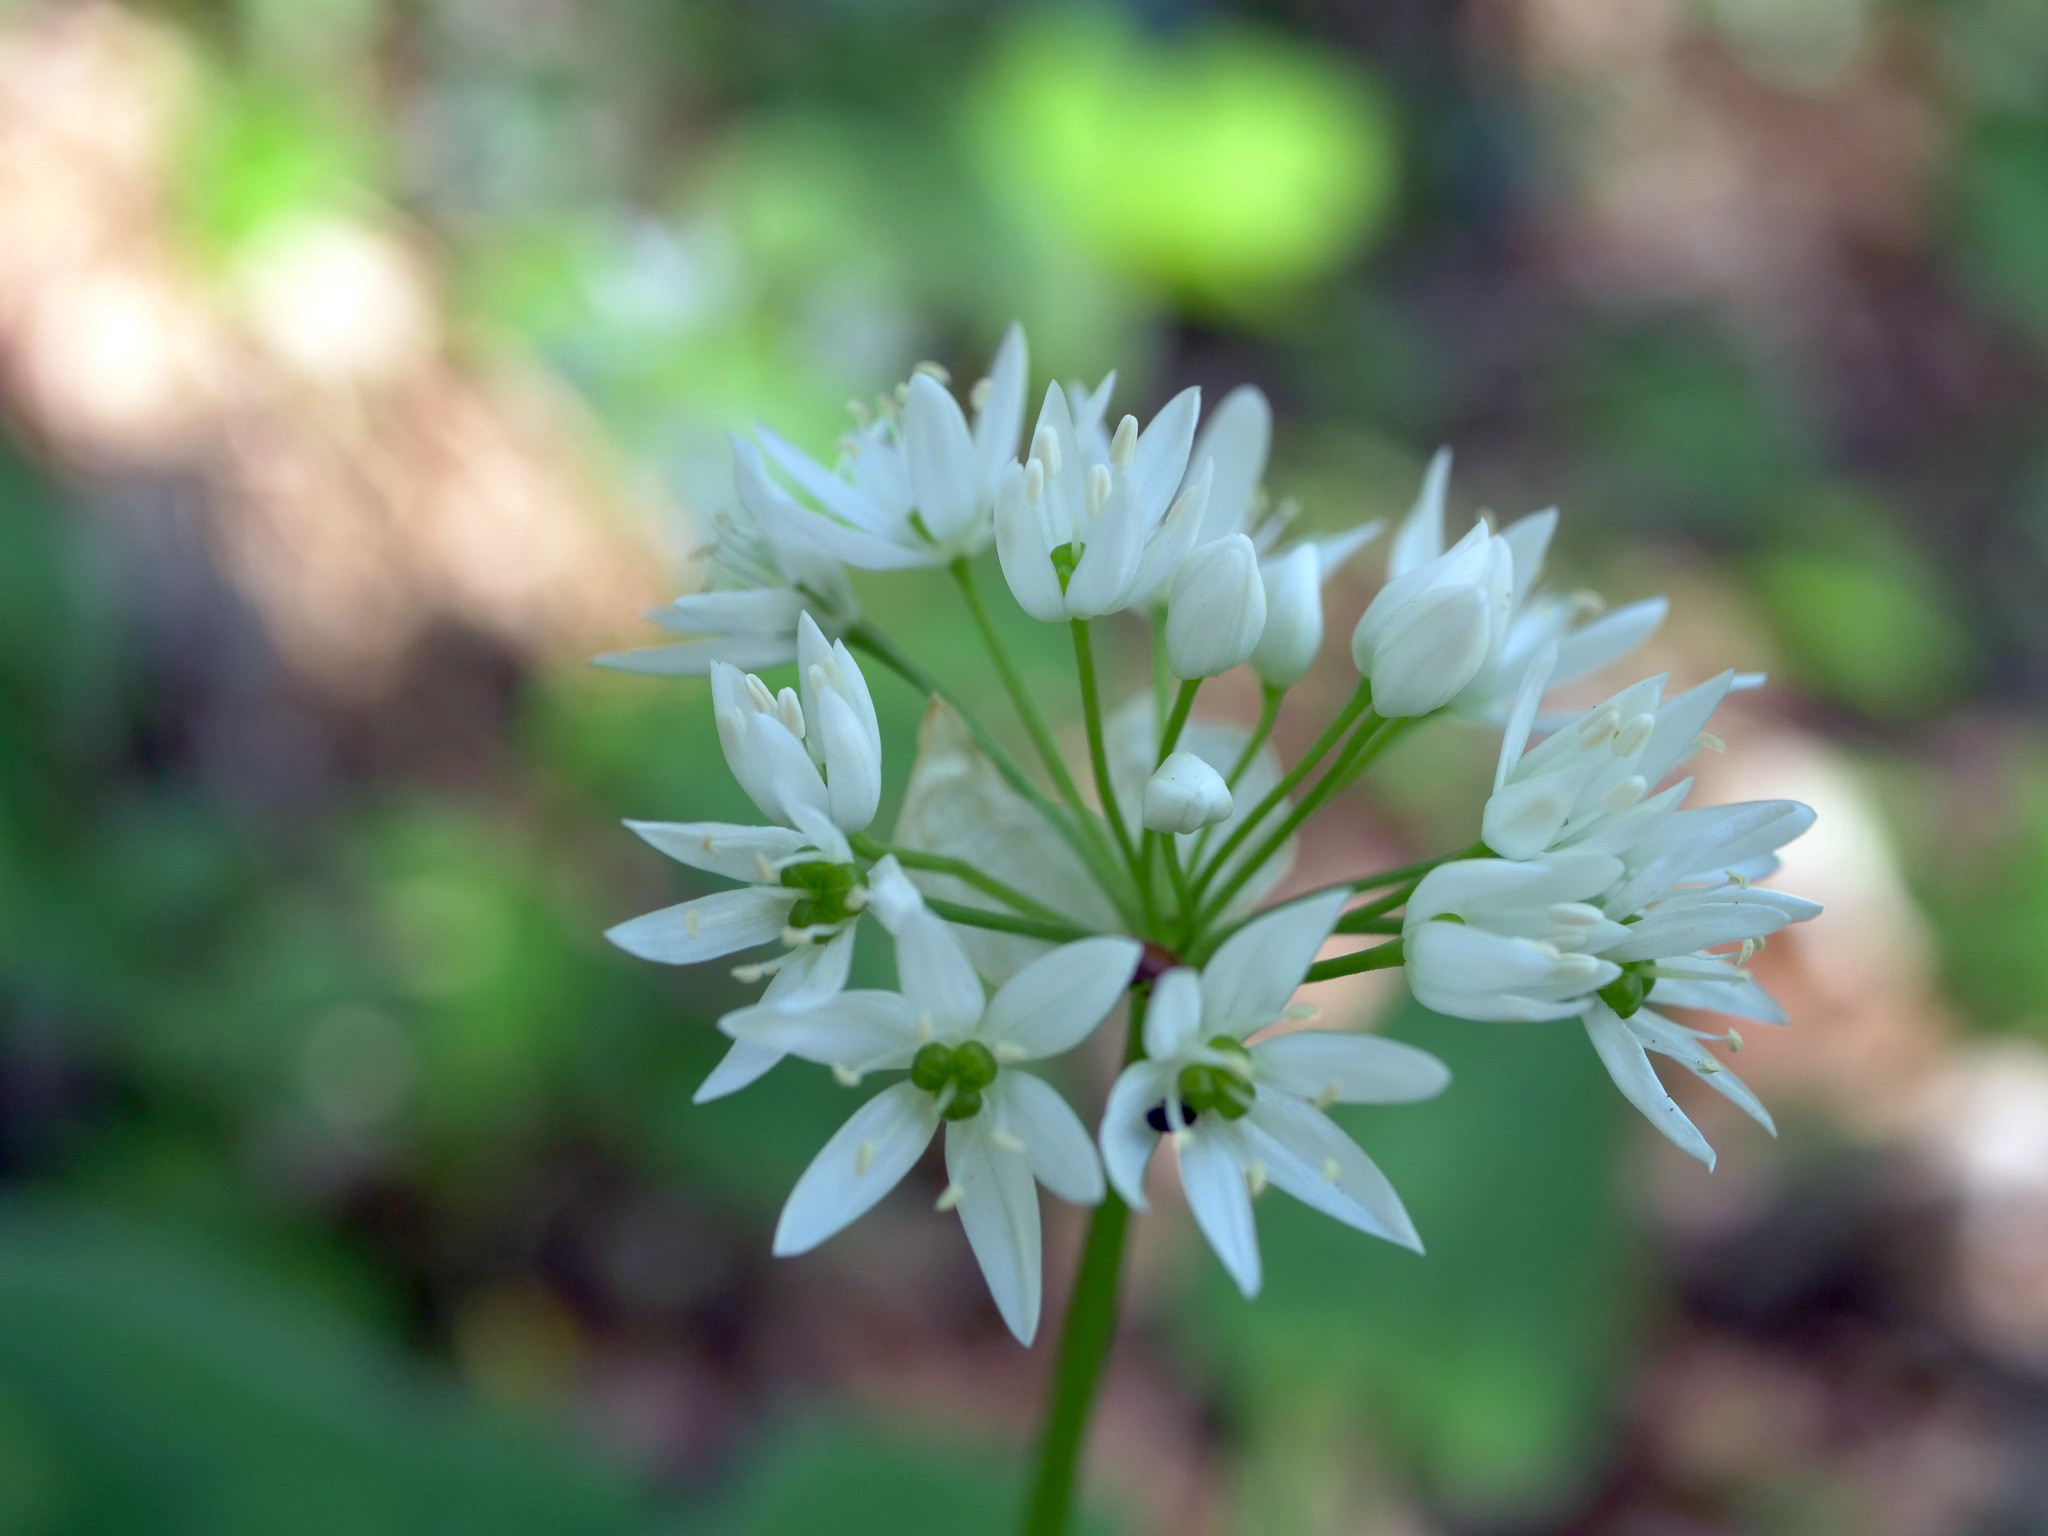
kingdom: Plantae
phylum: Tracheophyta
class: Liliopsida
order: Asparagales
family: Amaryllidaceae
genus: Allium
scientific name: Allium ursinum
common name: Ramsons
